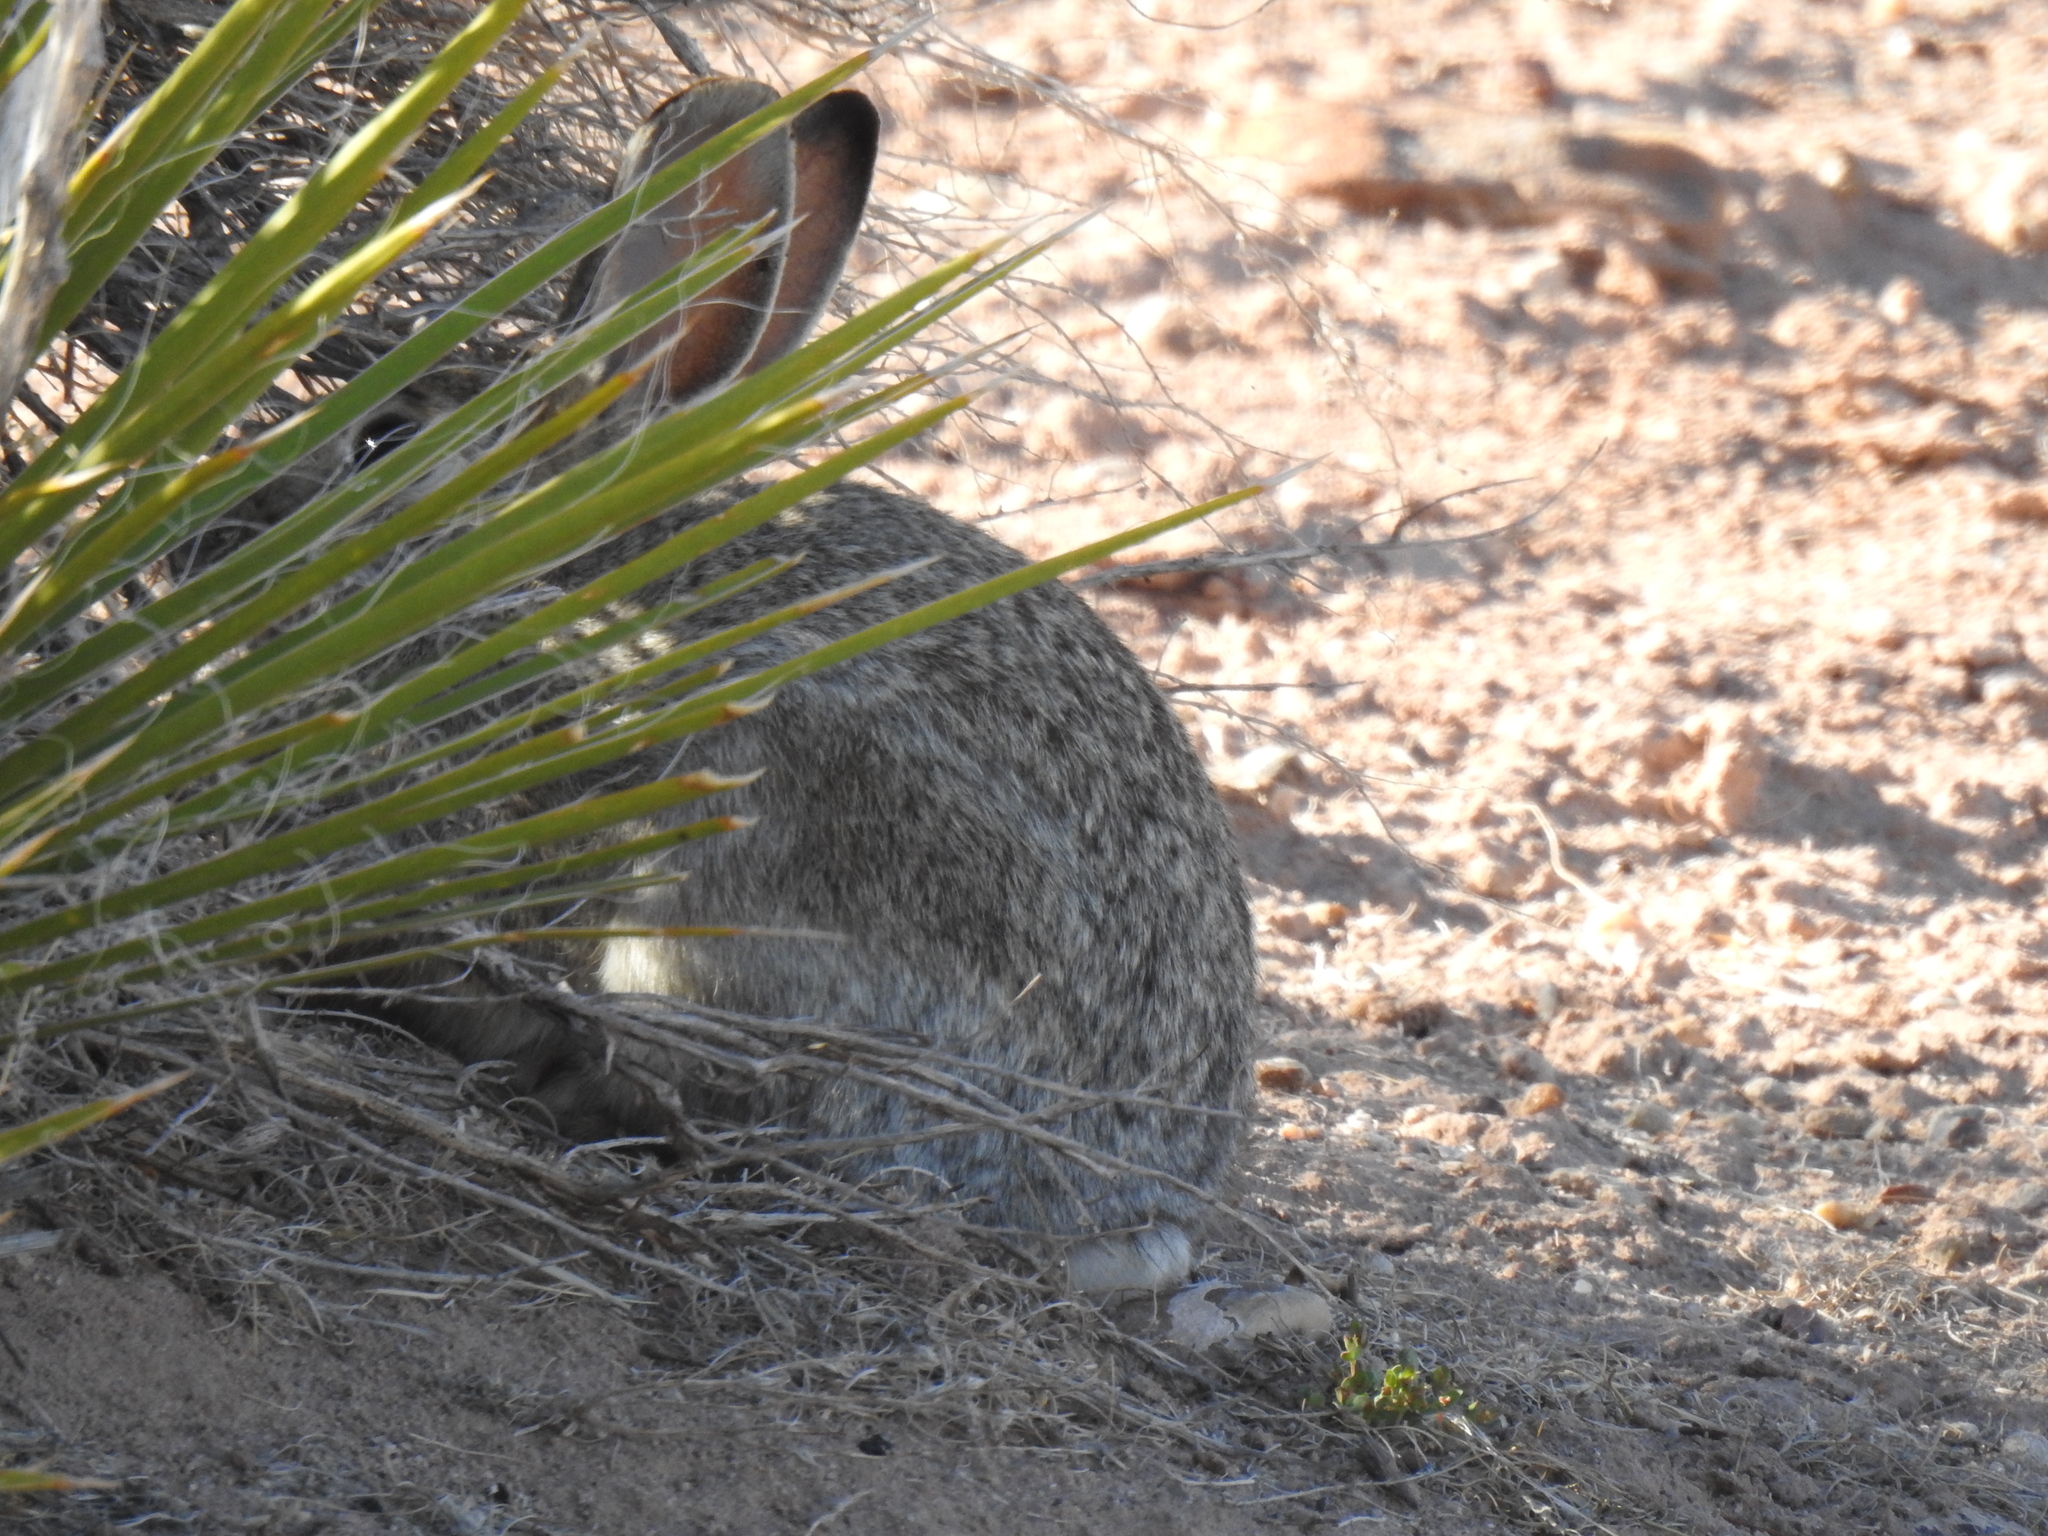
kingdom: Animalia
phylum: Chordata
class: Mammalia
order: Lagomorpha
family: Leporidae
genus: Sylvilagus
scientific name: Sylvilagus audubonii
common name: Desert cottontail
